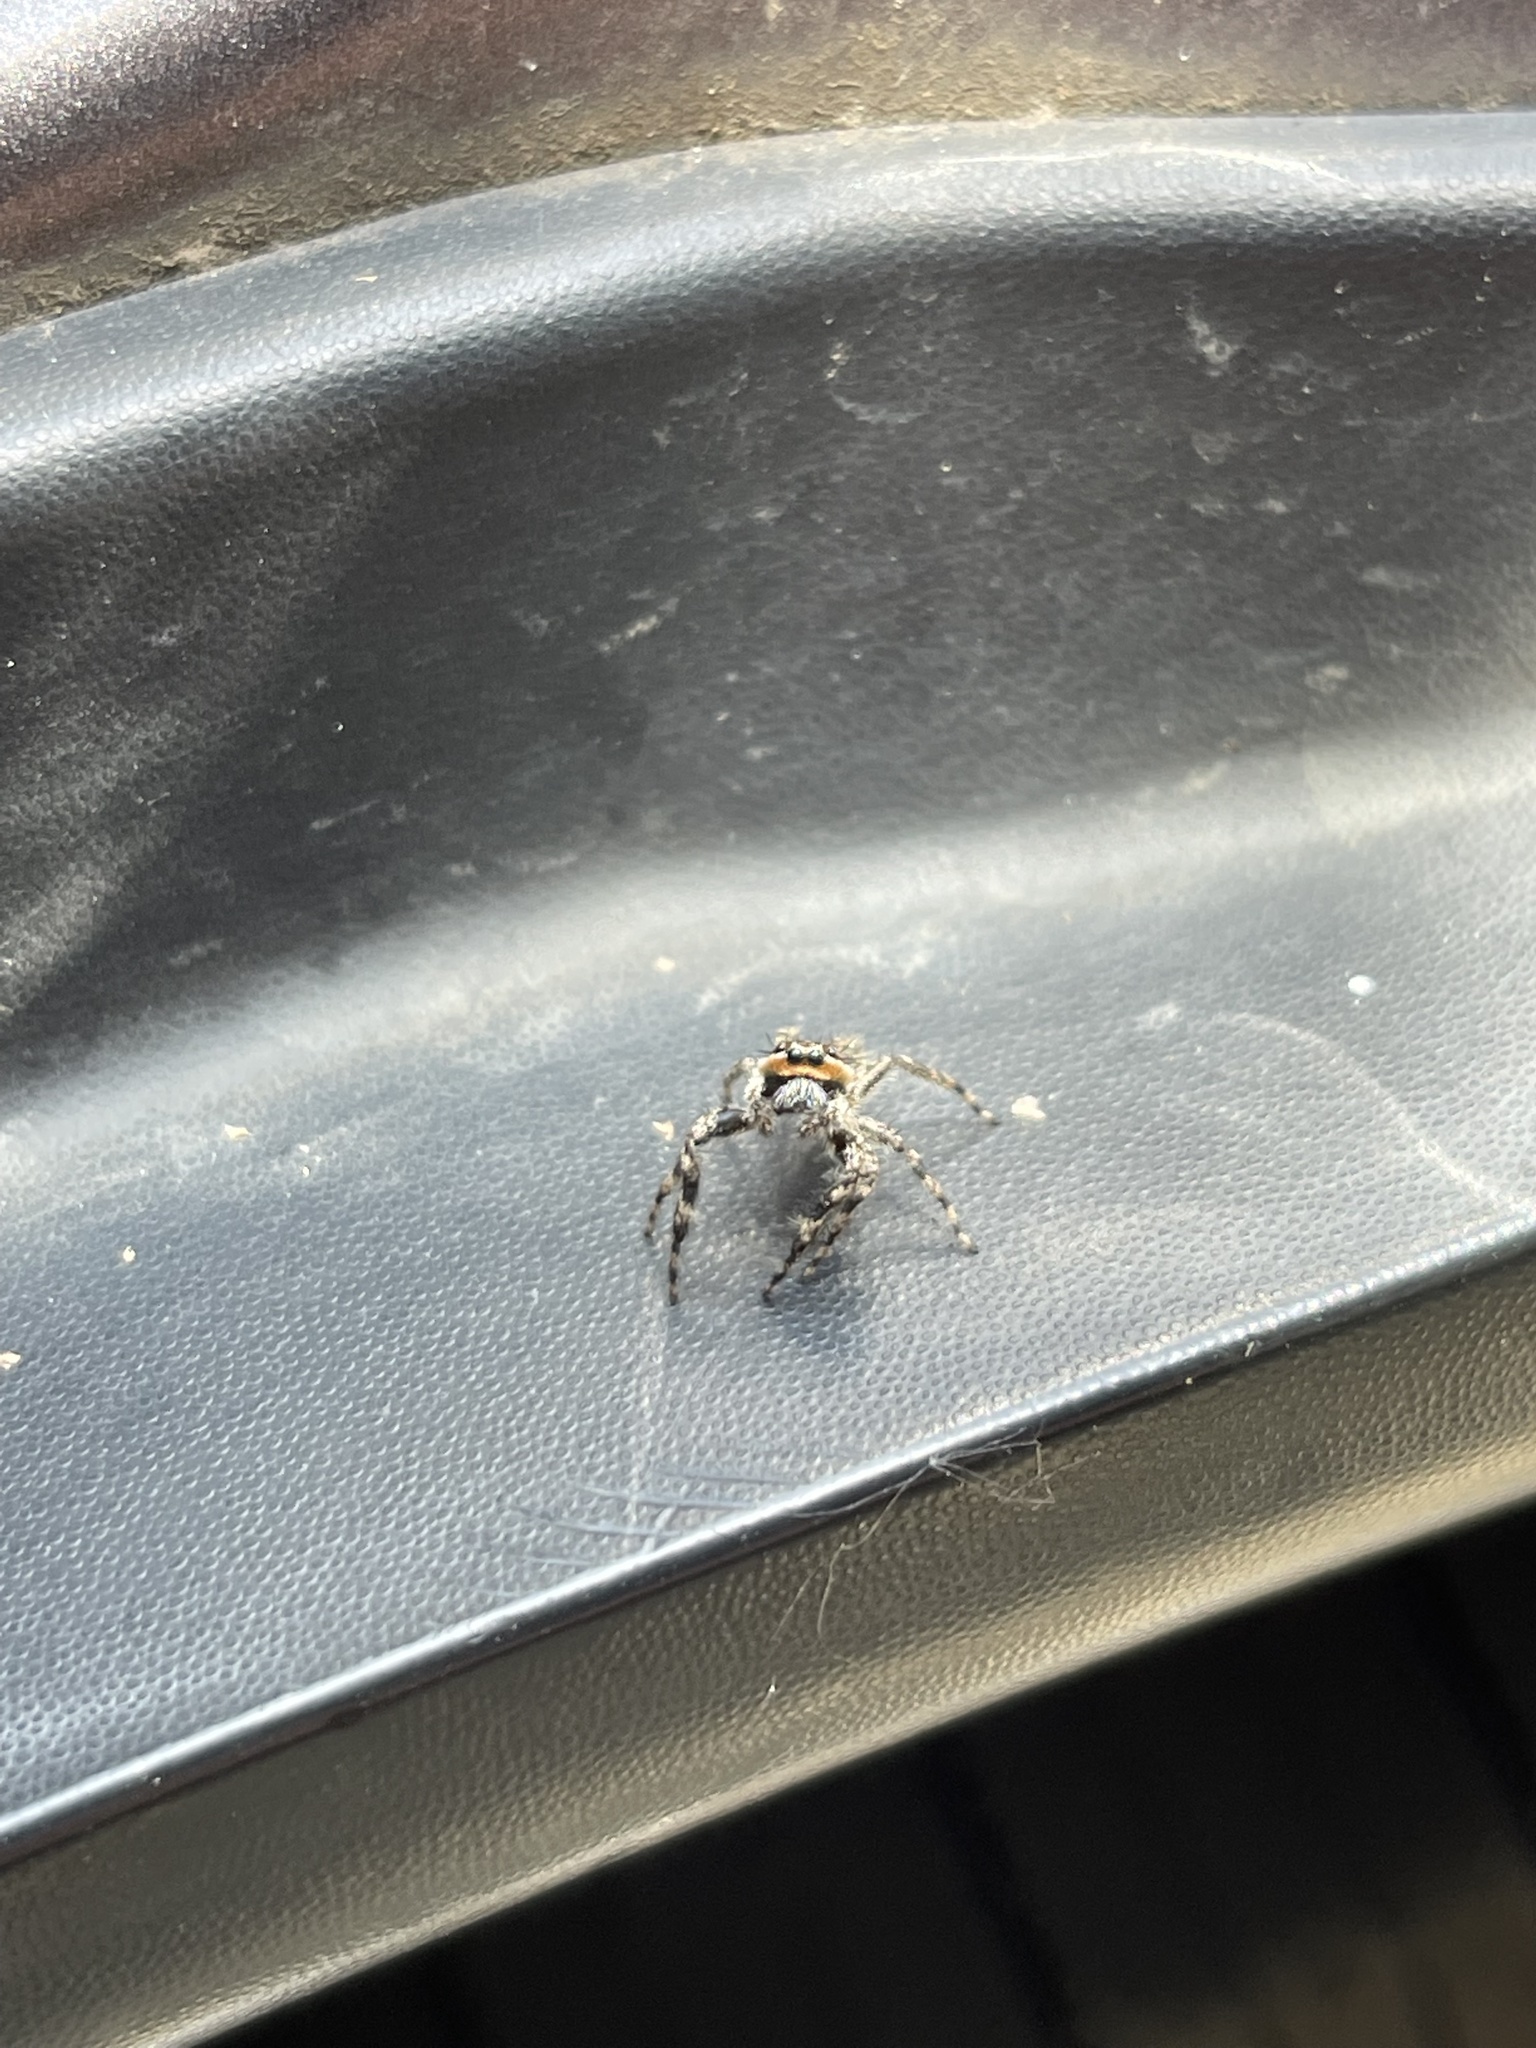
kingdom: Animalia
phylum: Arthropoda
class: Arachnida
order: Araneae
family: Salticidae
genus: Platycryptus
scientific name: Platycryptus undatus
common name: Tan jumping spider
